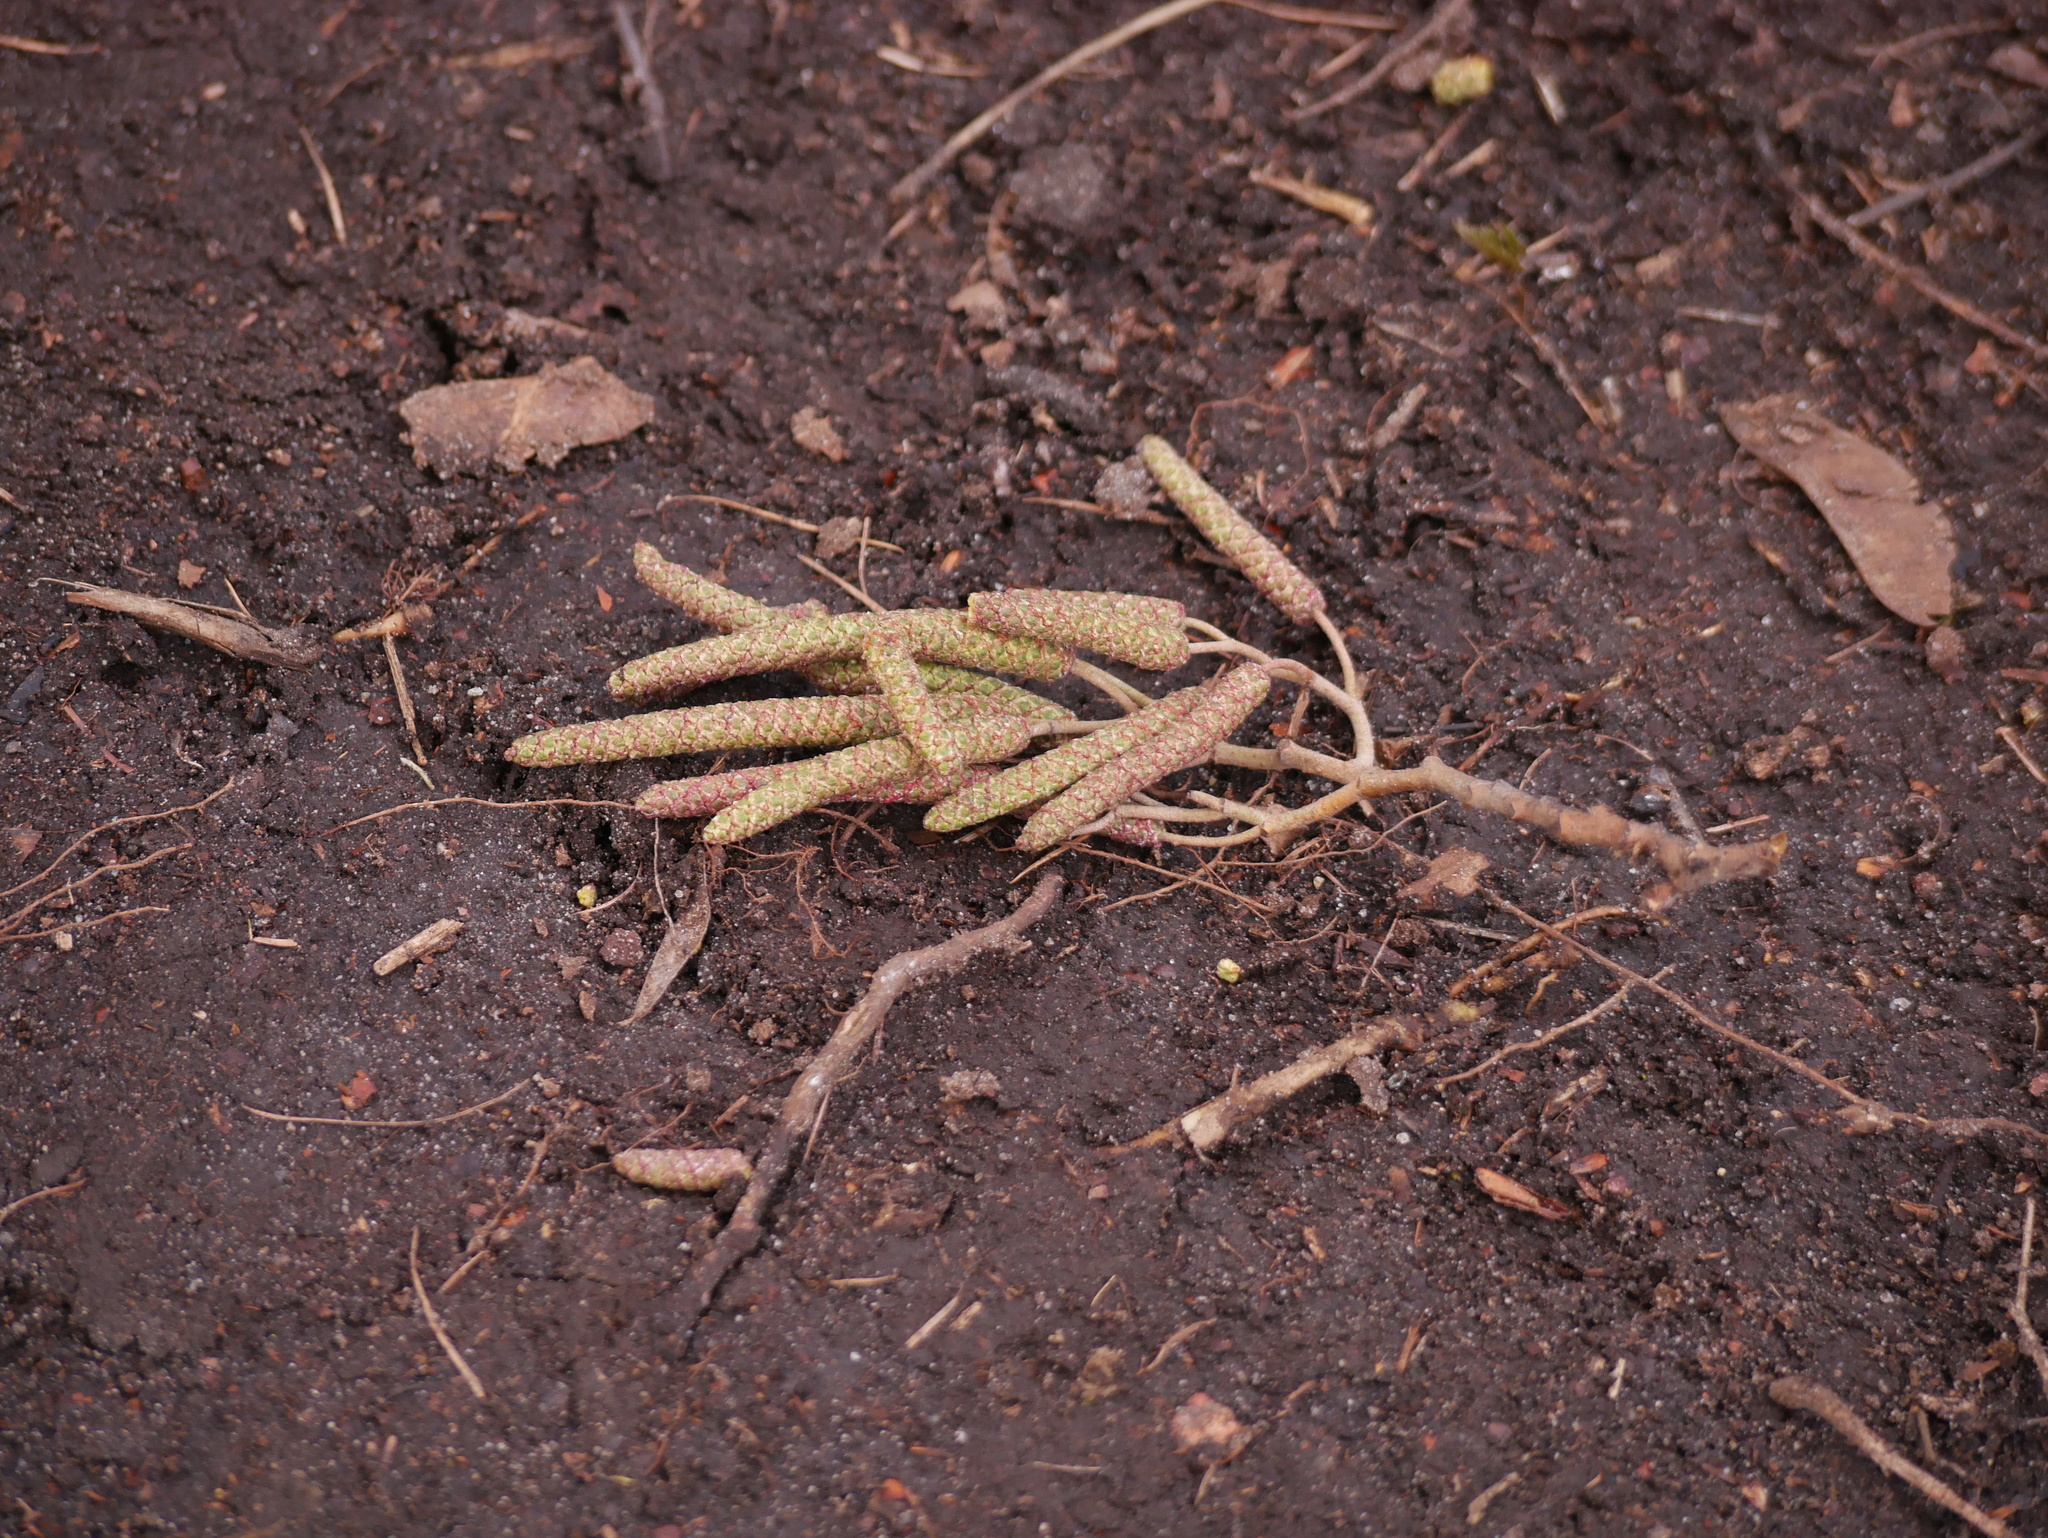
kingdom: Plantae
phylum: Tracheophyta
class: Magnoliopsida
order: Fagales
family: Betulaceae
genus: Corylus
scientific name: Corylus avellana
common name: European hazel
